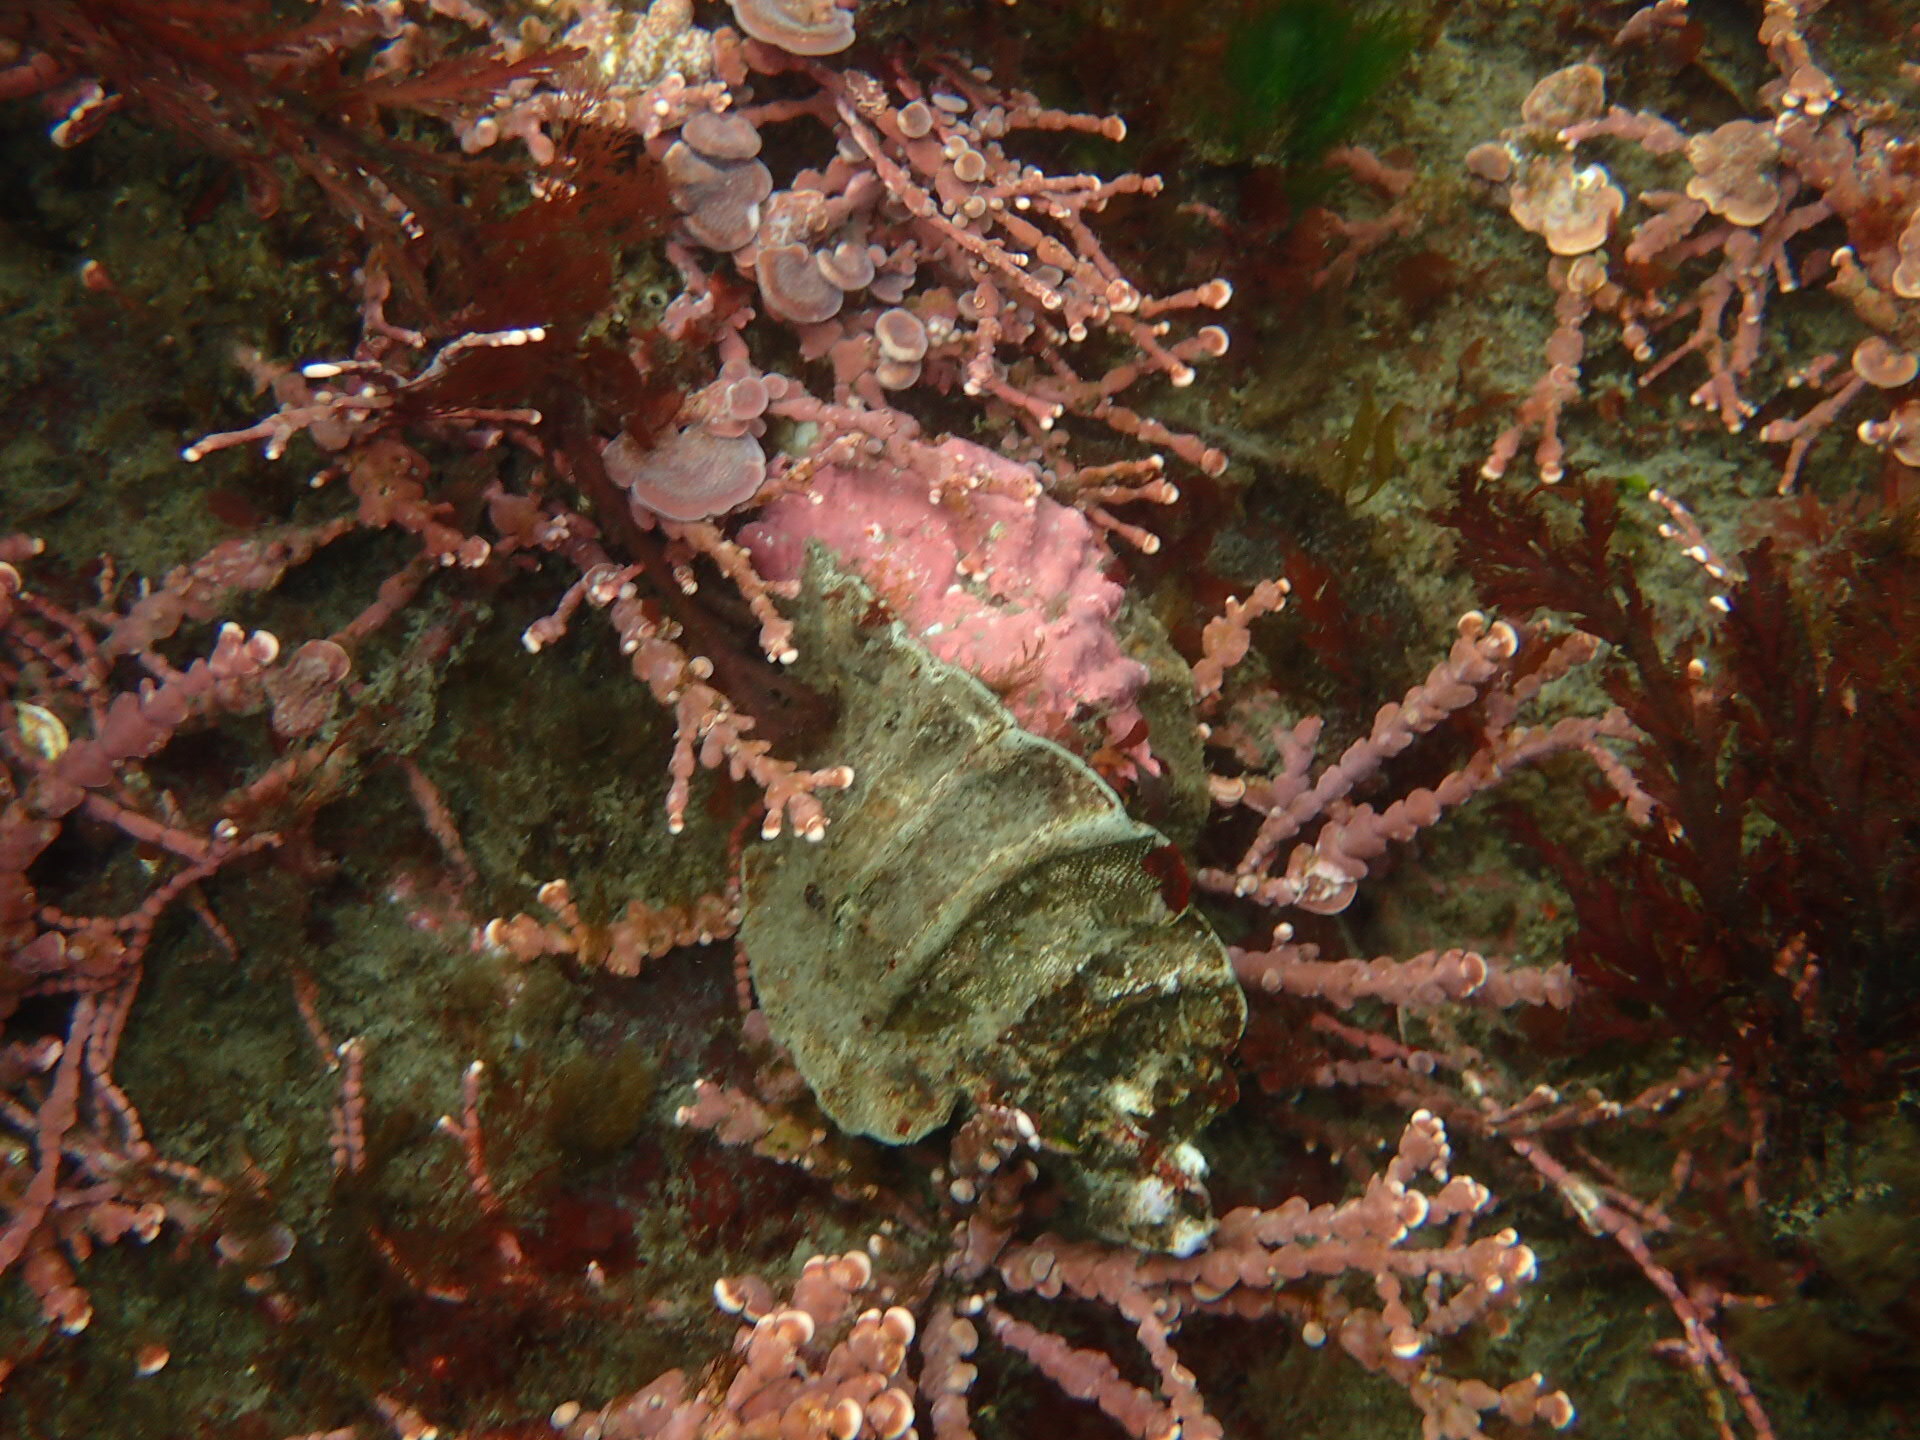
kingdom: Animalia
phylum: Mollusca
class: Gastropoda
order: Neogastropoda
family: Muricidae
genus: Ceratostoma
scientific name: Ceratostoma foliatum
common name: Foliate thorn purpura
